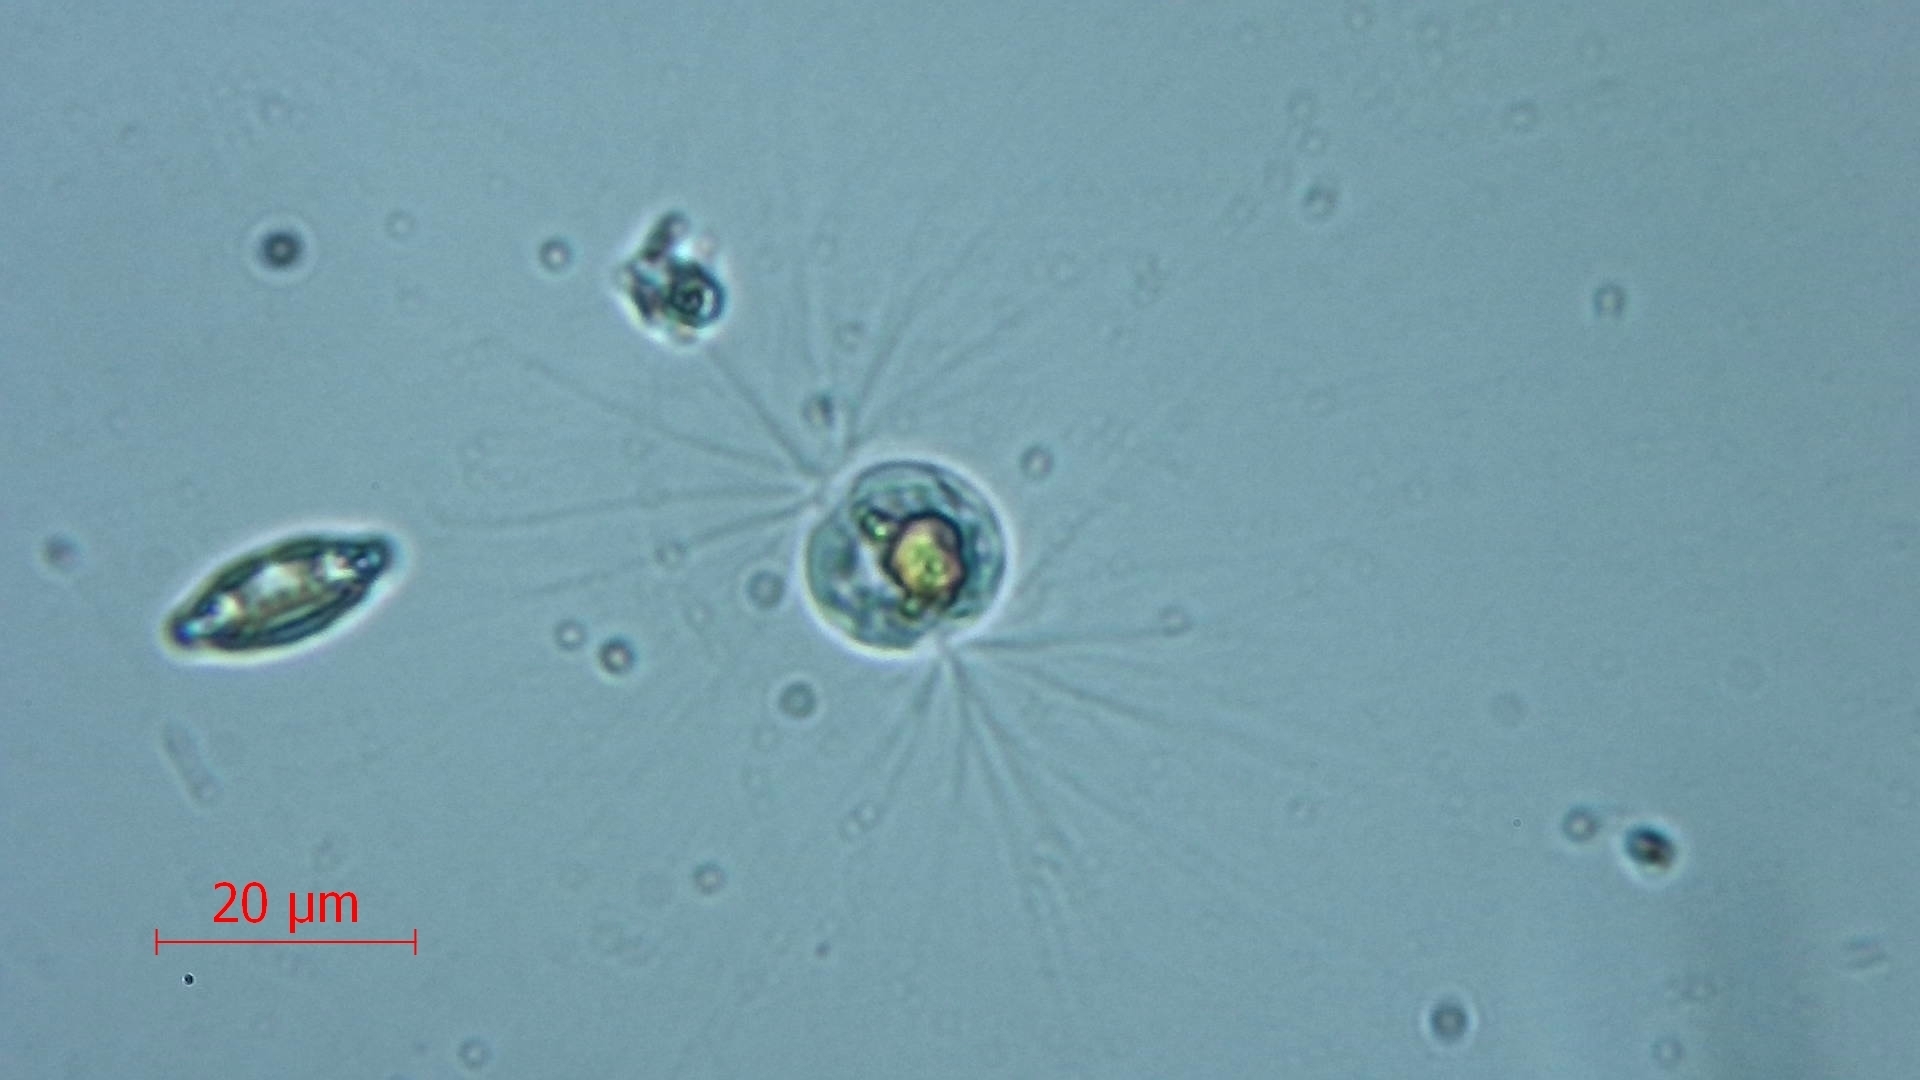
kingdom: Chromista
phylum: Bigyra
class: Labyrinthulea
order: Thraustochytrida
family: Diplophryidae
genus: Diplophrys
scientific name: Diplophrys archeri
